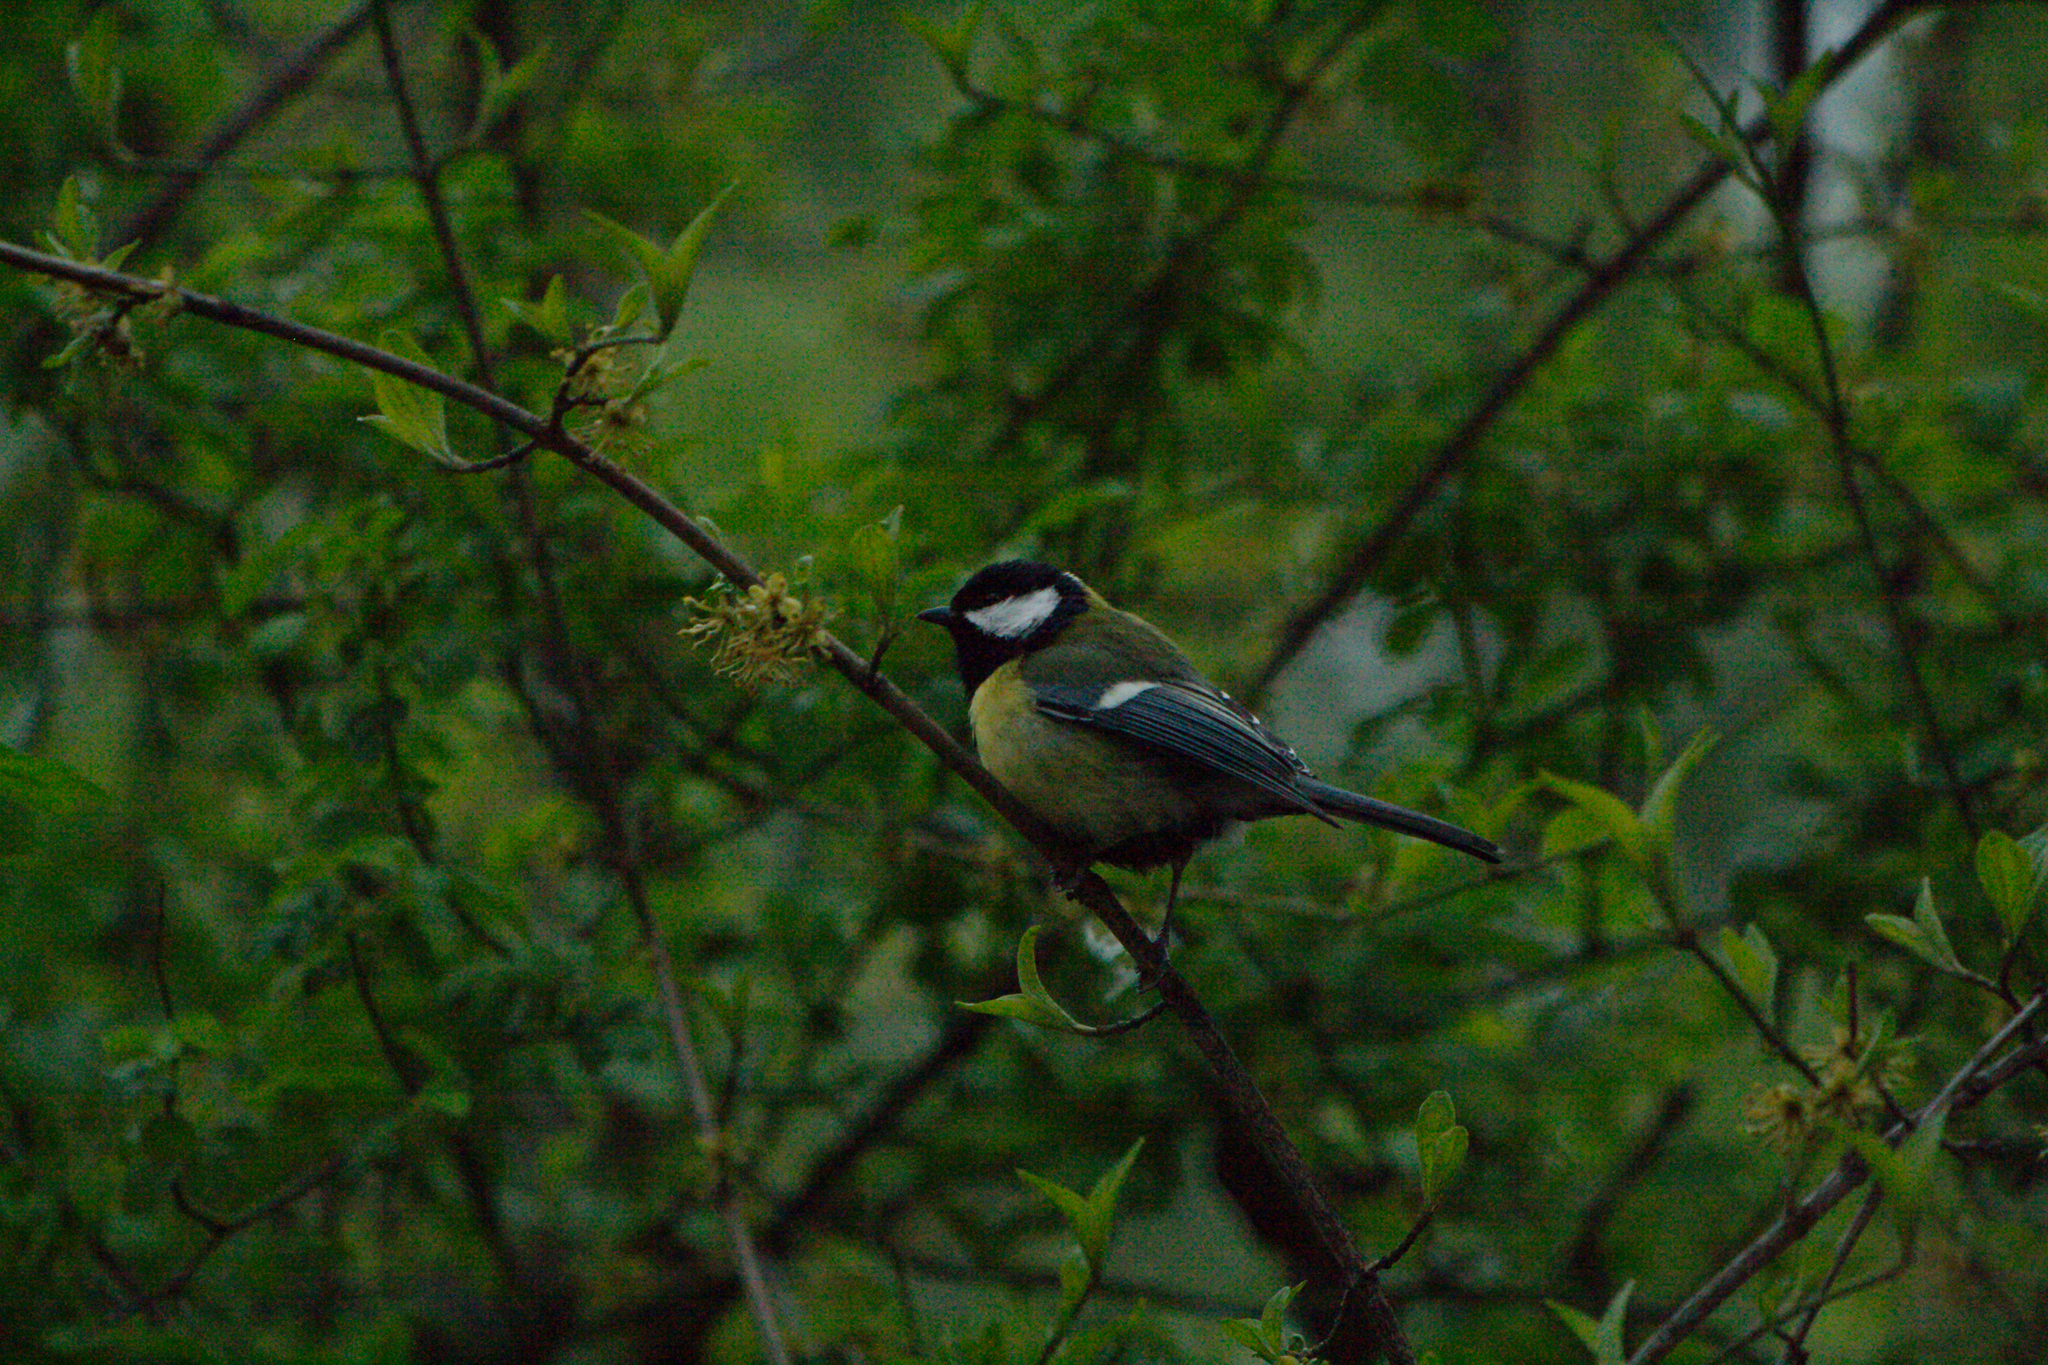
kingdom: Animalia
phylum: Chordata
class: Aves
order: Passeriformes
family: Paridae
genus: Parus
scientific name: Parus major
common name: Great tit
